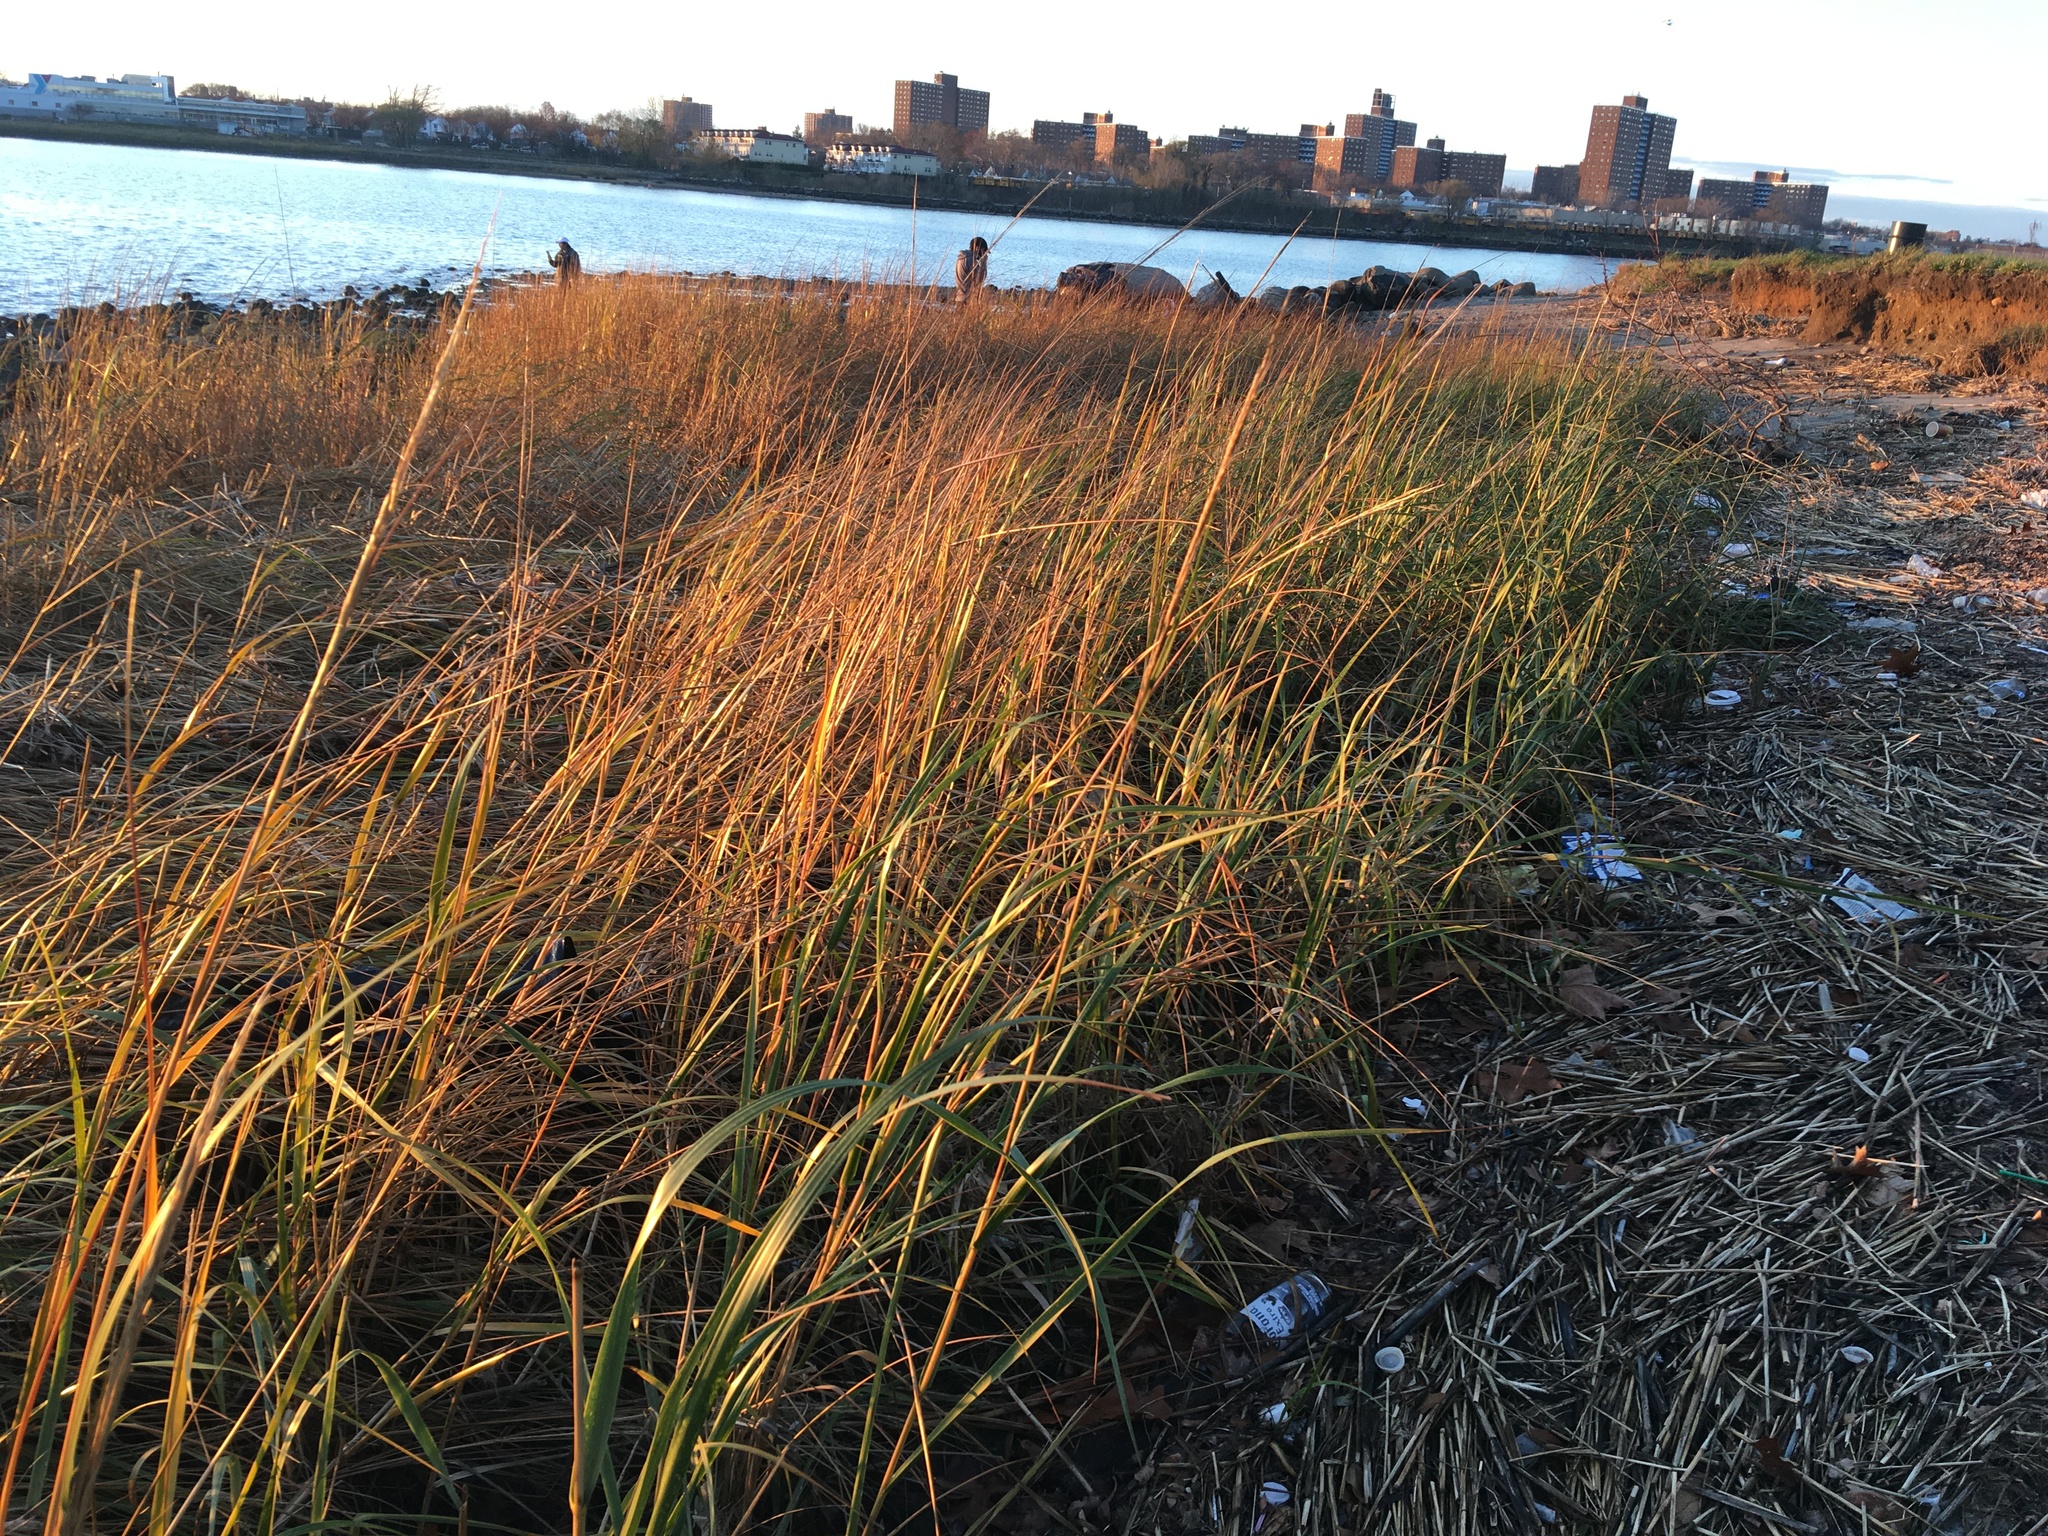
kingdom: Plantae
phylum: Tracheophyta
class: Liliopsida
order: Poales
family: Poaceae
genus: Sporobolus
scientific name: Sporobolus alterniflorus
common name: Atlantic cordgrass
